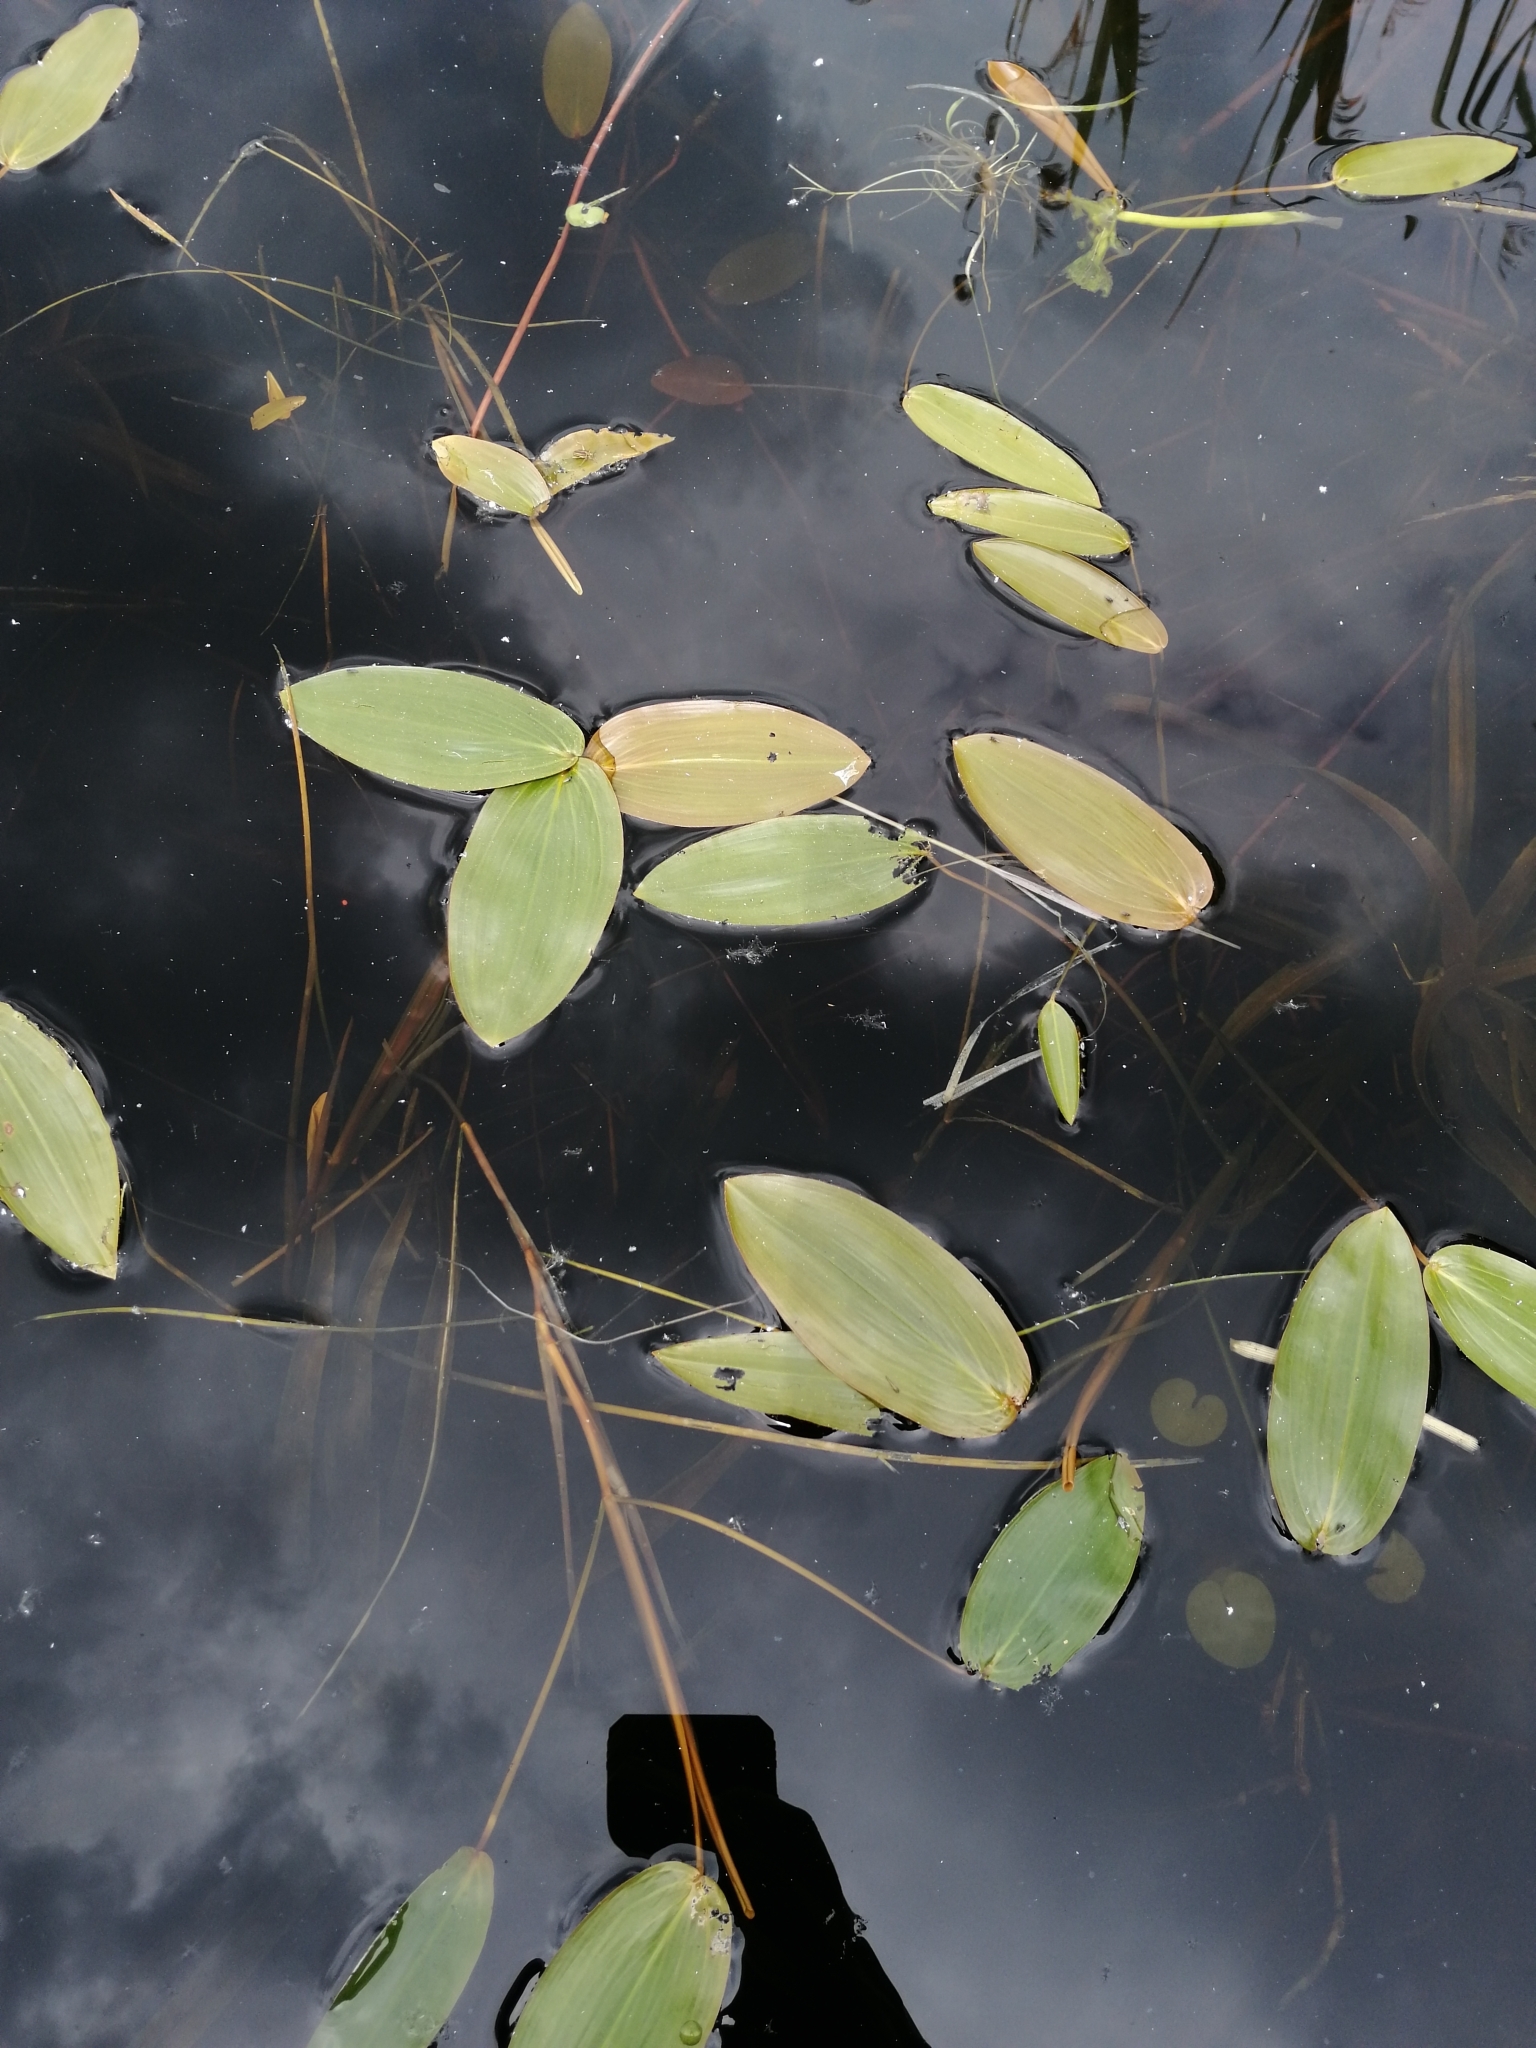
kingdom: Plantae
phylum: Tracheophyta
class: Liliopsida
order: Alismatales
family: Potamogetonaceae
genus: Potamogeton
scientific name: Potamogeton natans
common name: Broad-leaved pondweed
